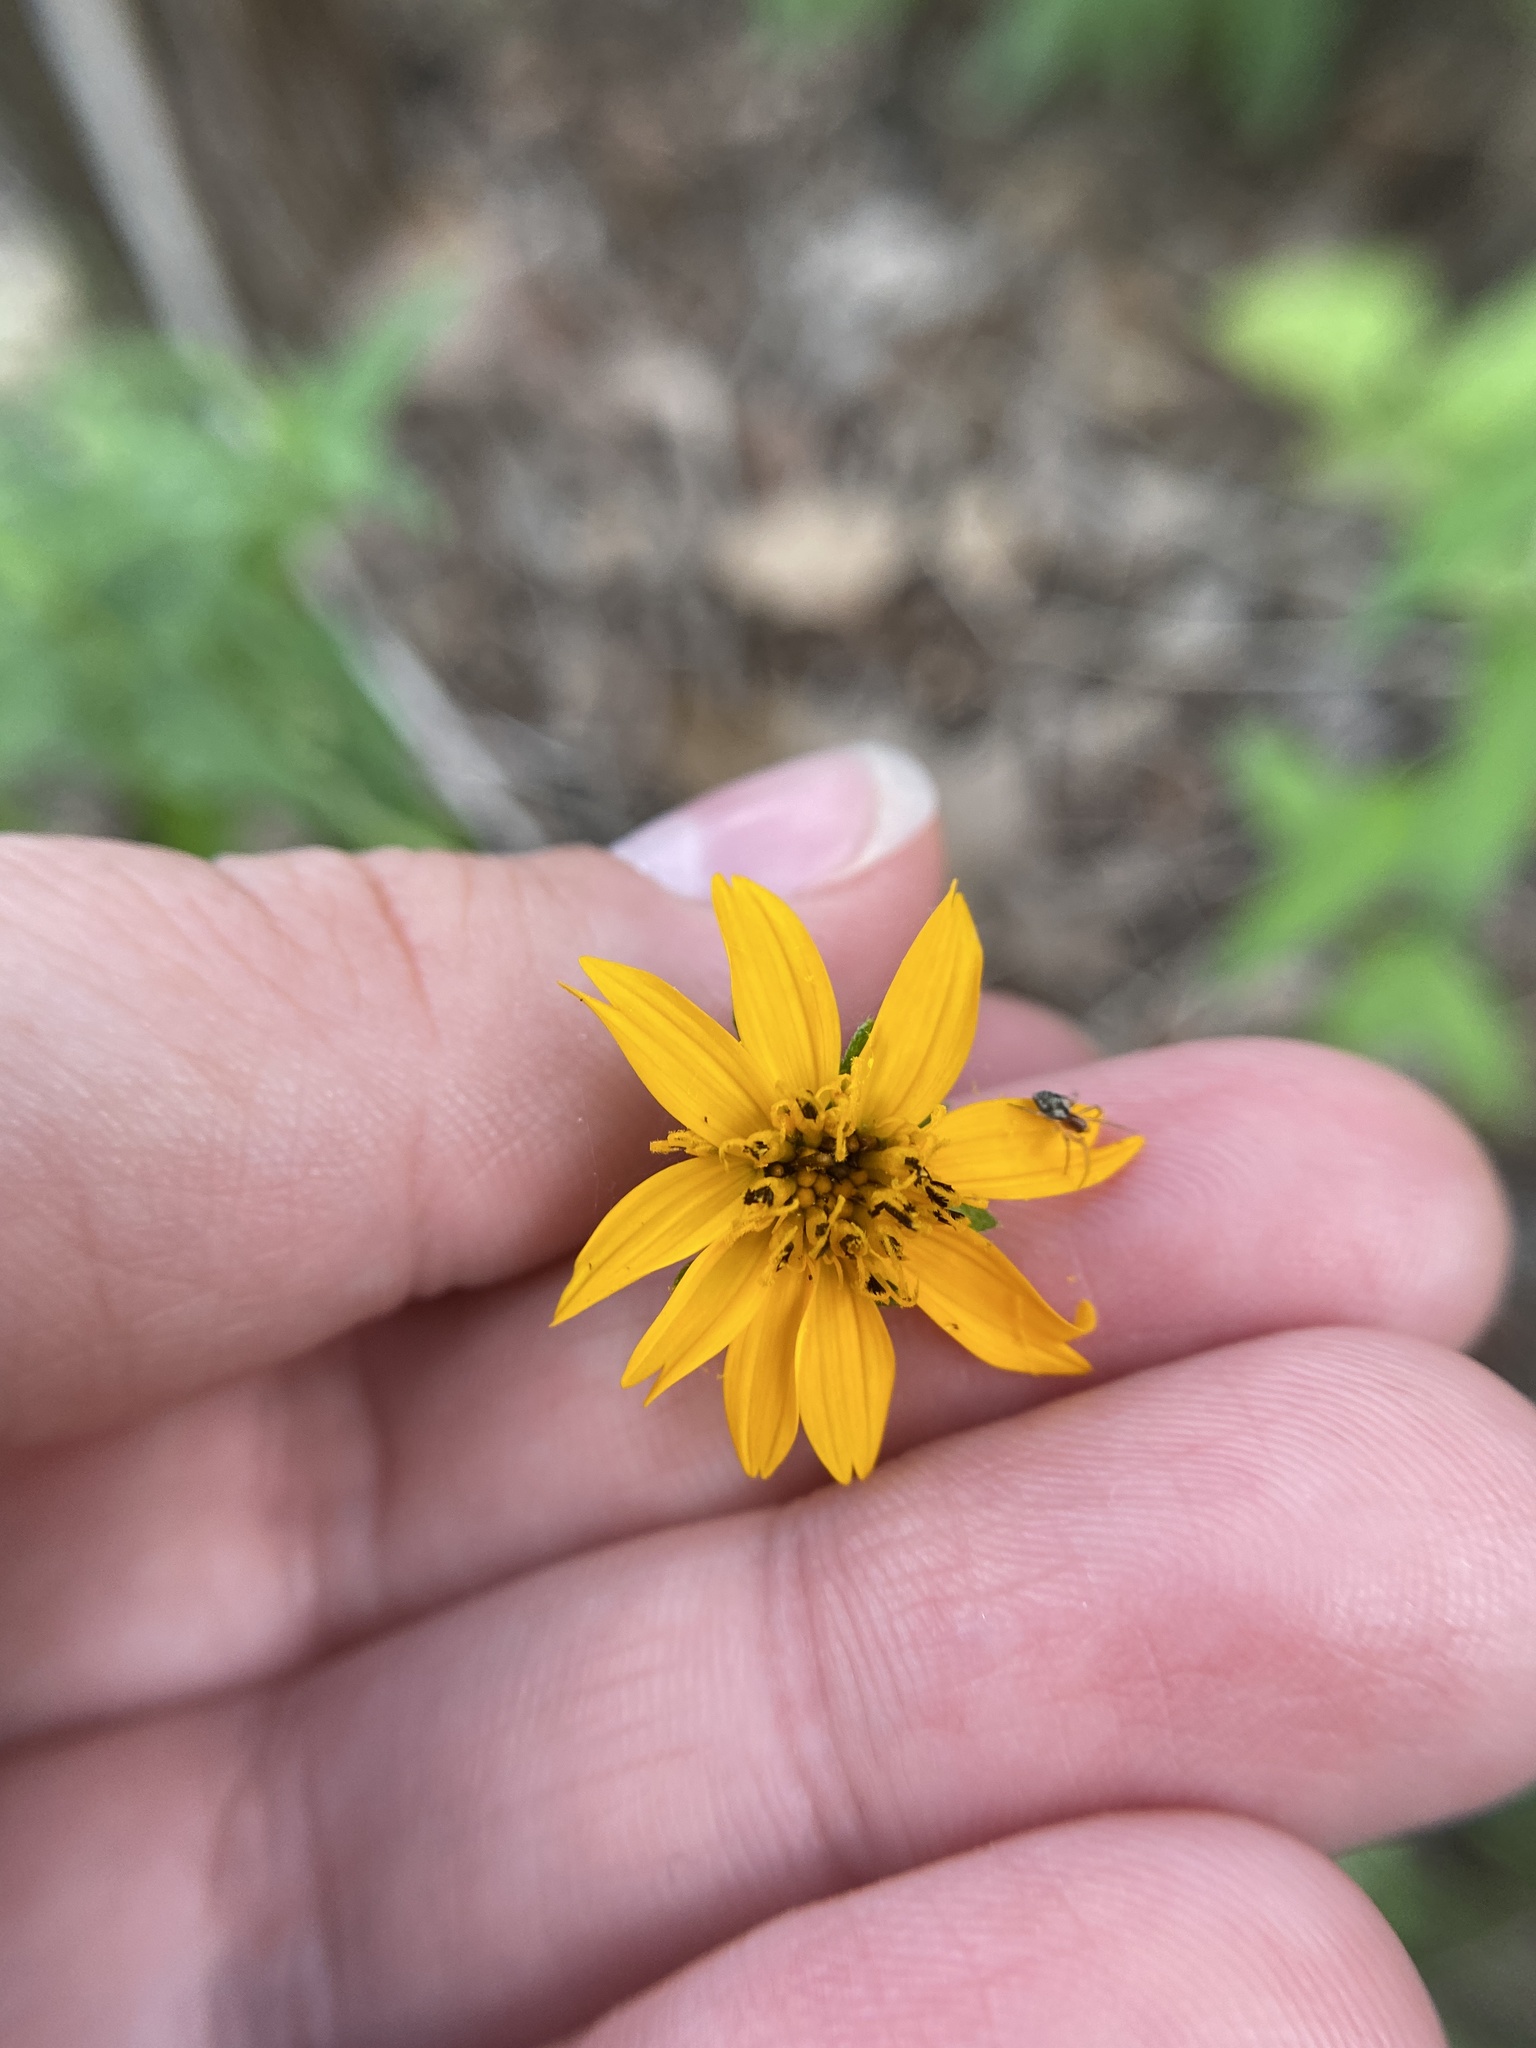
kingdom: Plantae
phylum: Tracheophyta
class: Magnoliopsida
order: Asterales
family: Asteraceae
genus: Wedelia
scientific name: Wedelia acapulcensis
